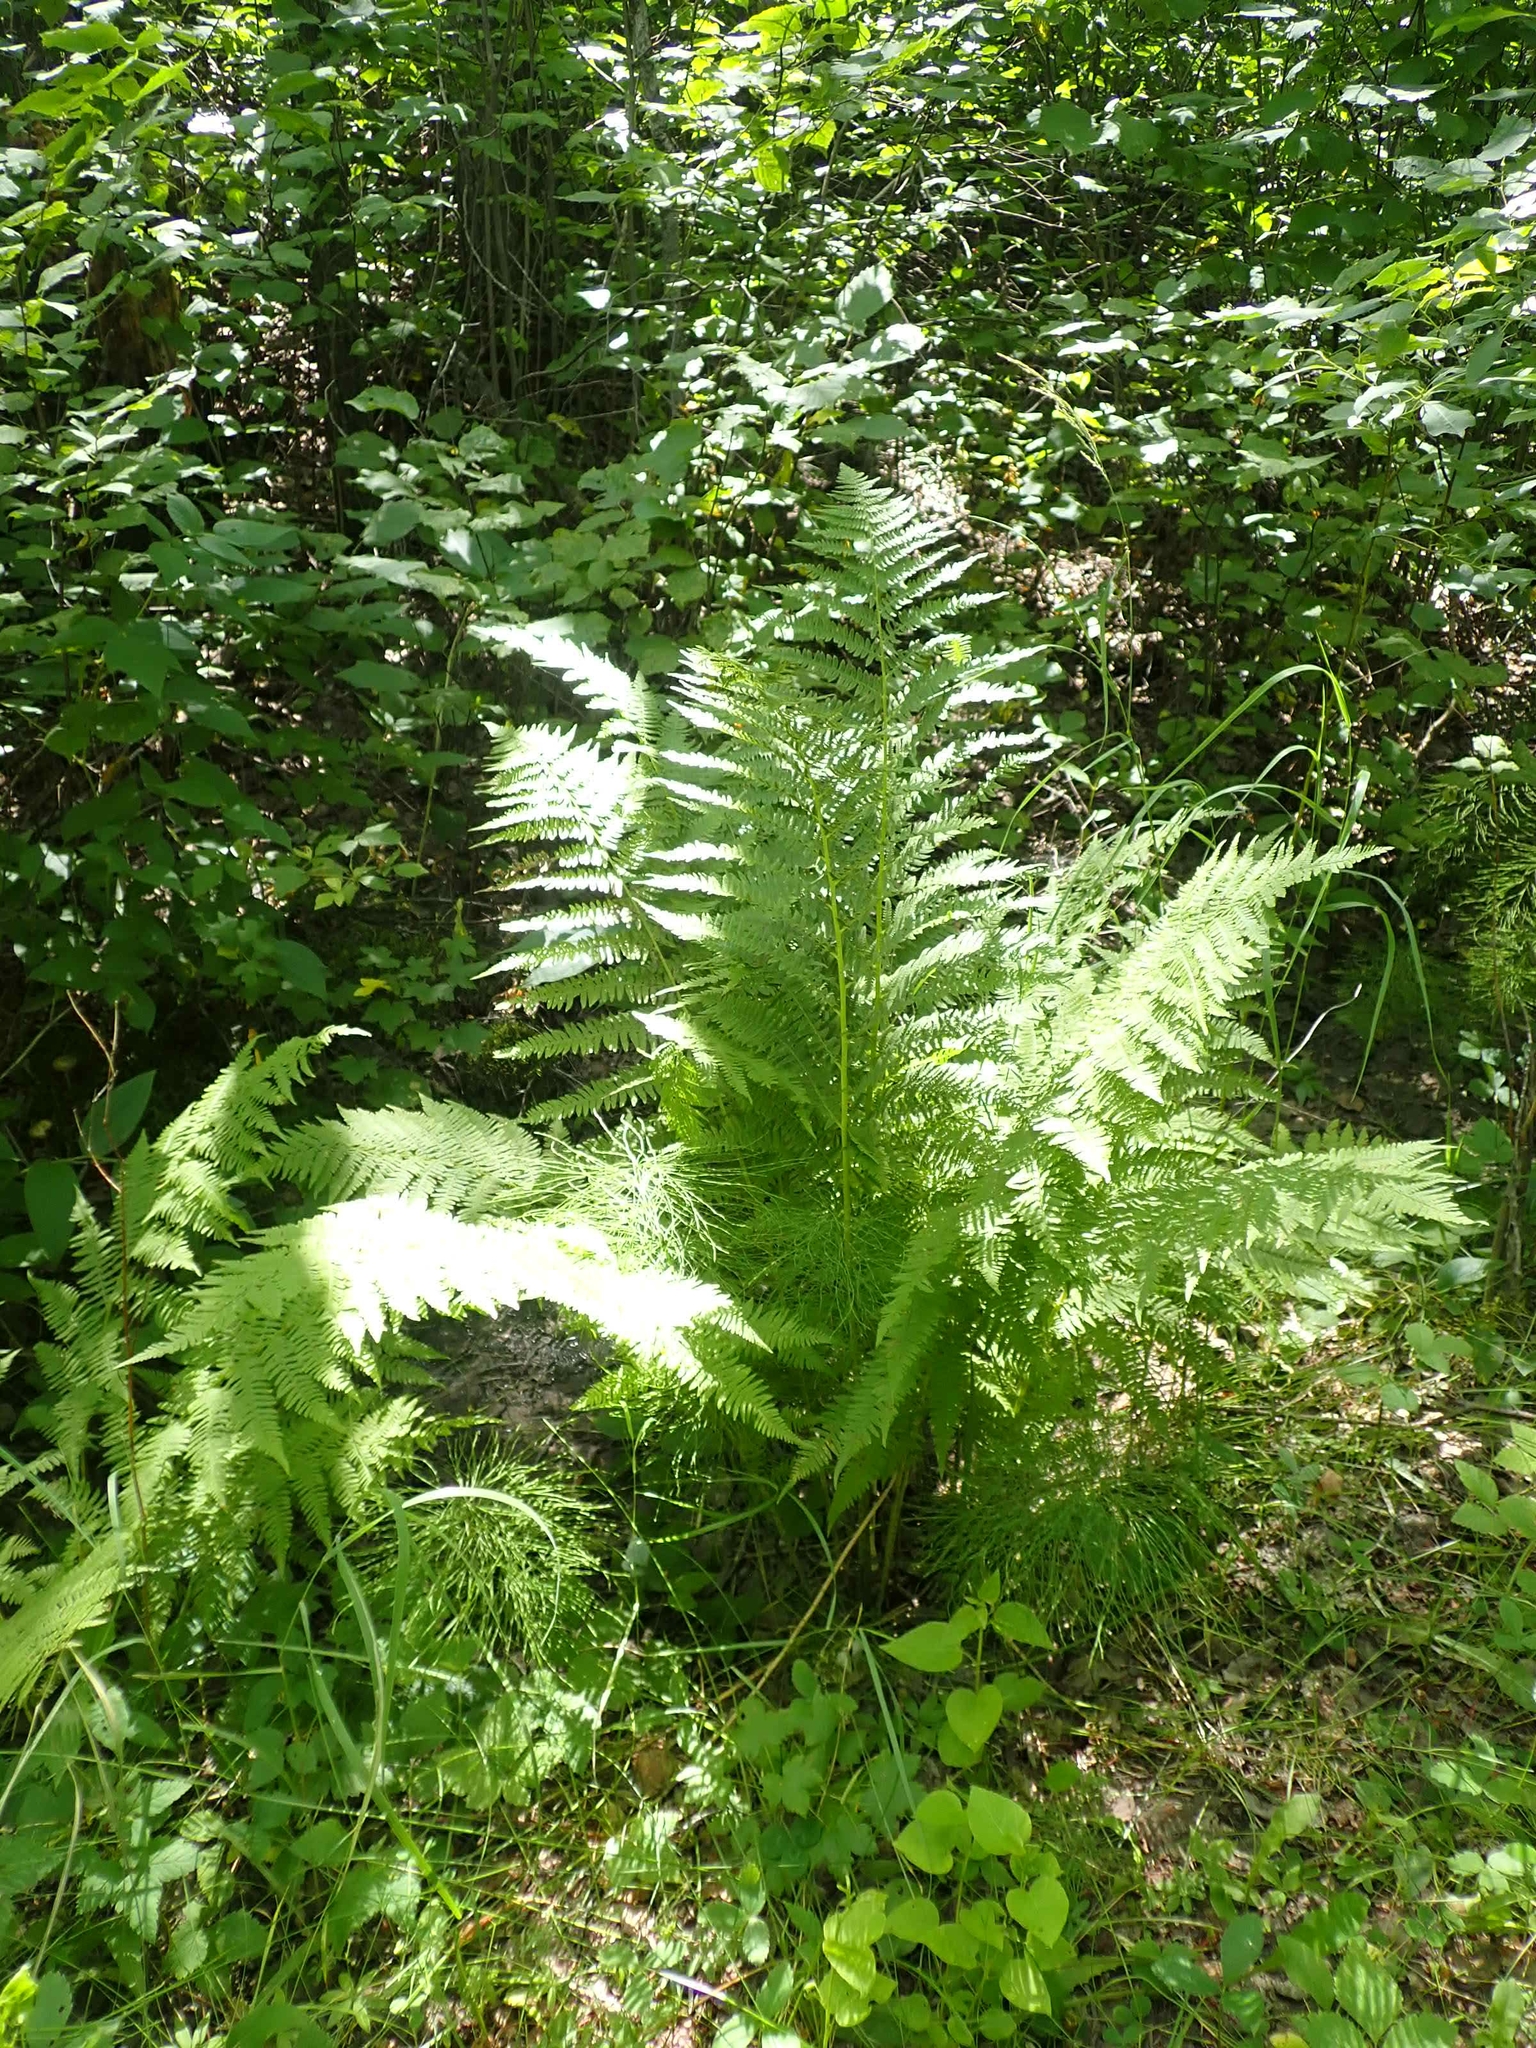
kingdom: Plantae
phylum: Tracheophyta
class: Polypodiopsida
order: Polypodiales
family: Athyriaceae
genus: Athyrium
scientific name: Athyrium angustum
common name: Northern lady fern
